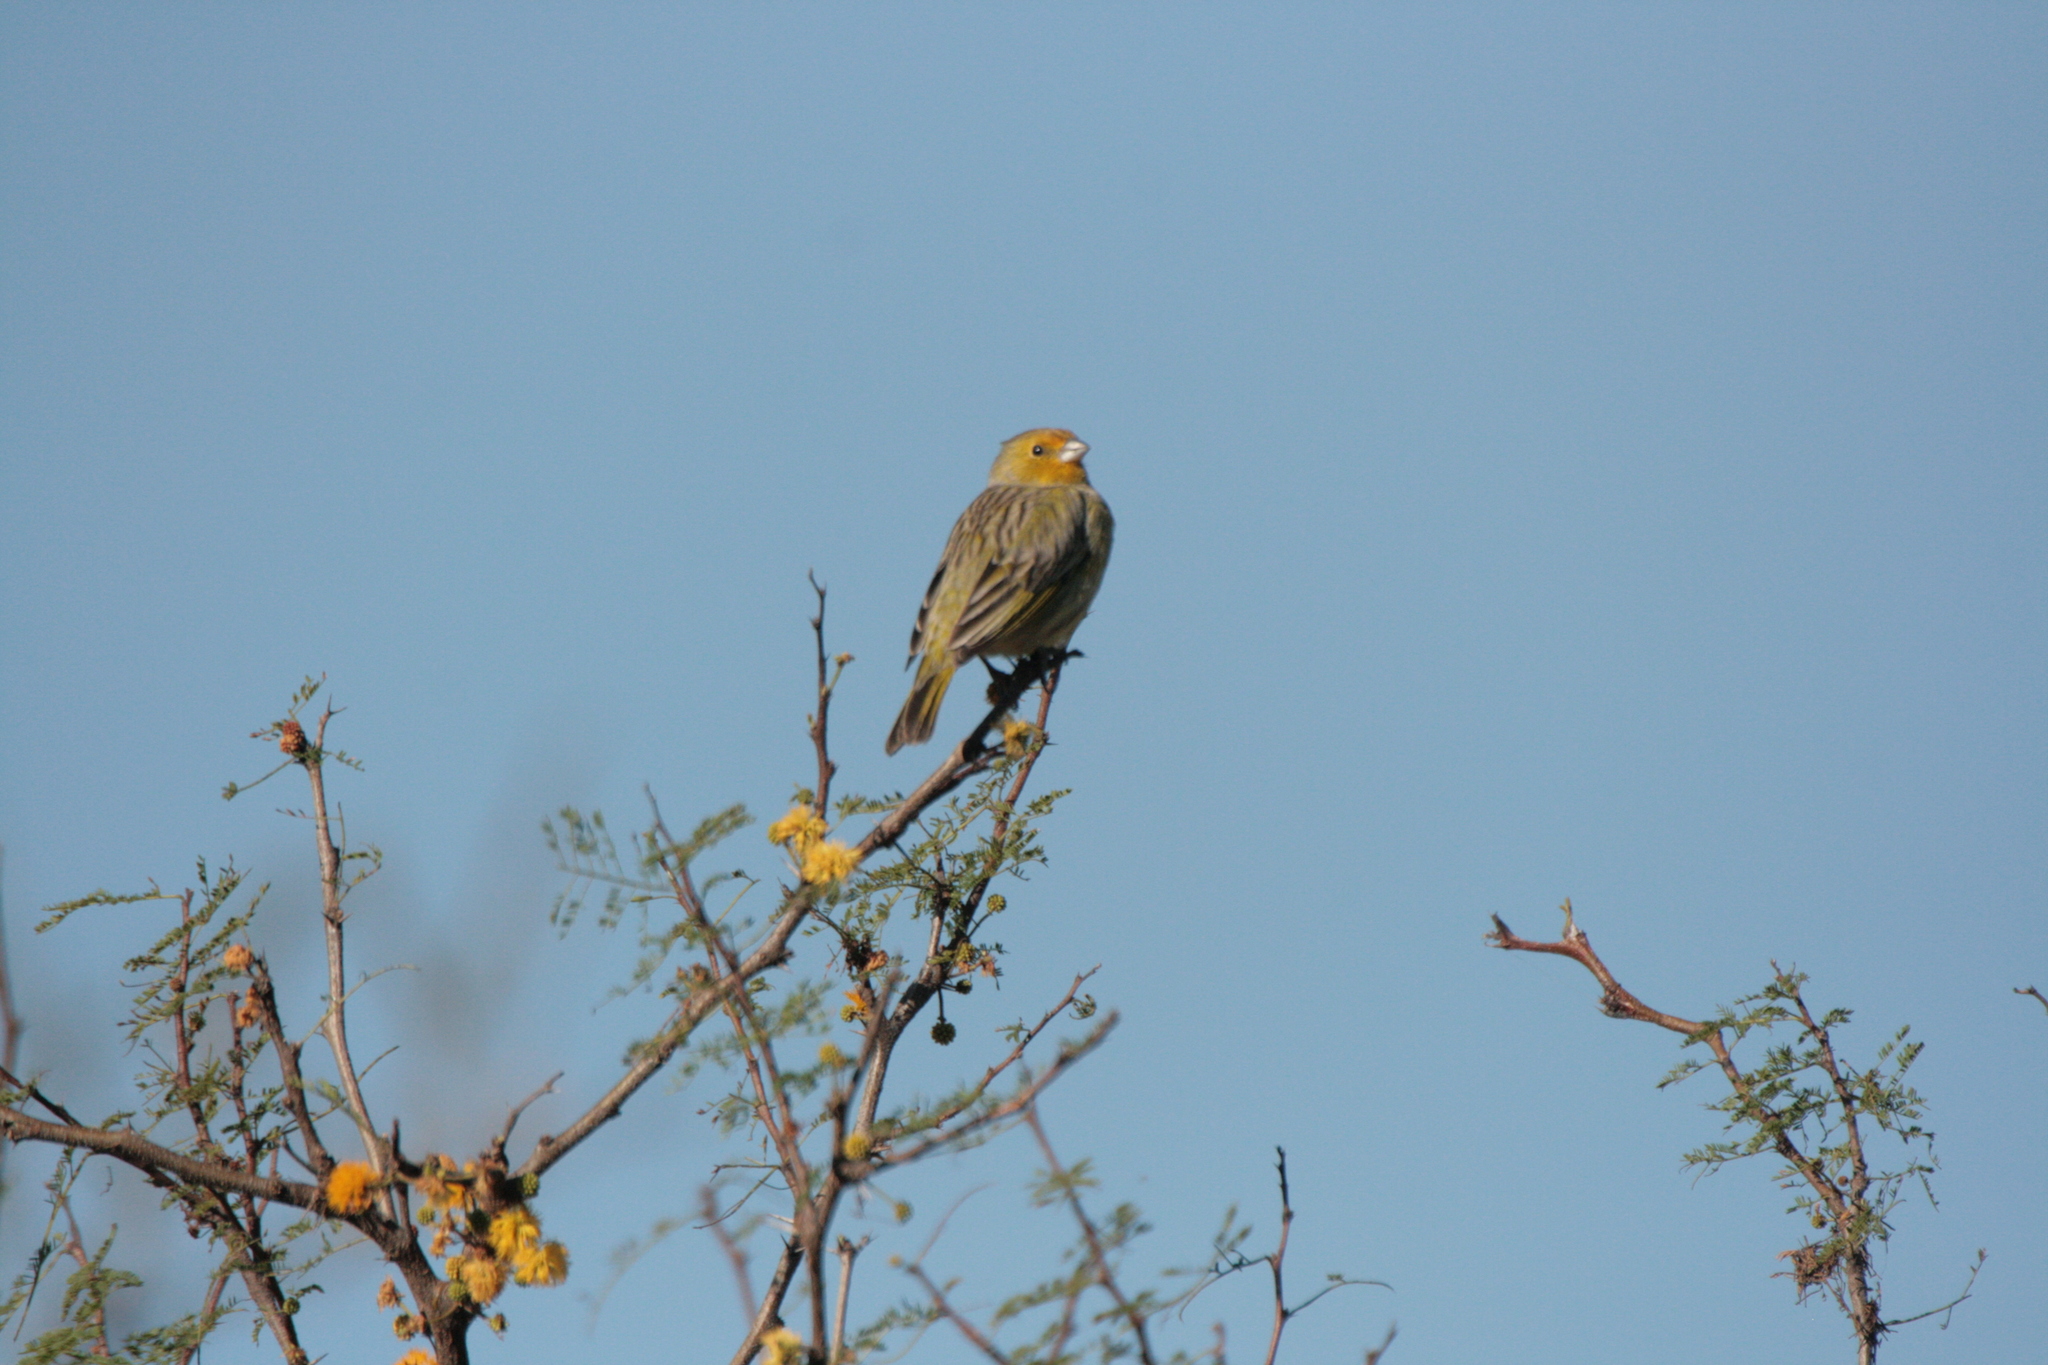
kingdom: Animalia
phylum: Chordata
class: Aves
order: Passeriformes
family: Thraupidae
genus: Sicalis
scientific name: Sicalis flaveola
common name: Saffron finch
